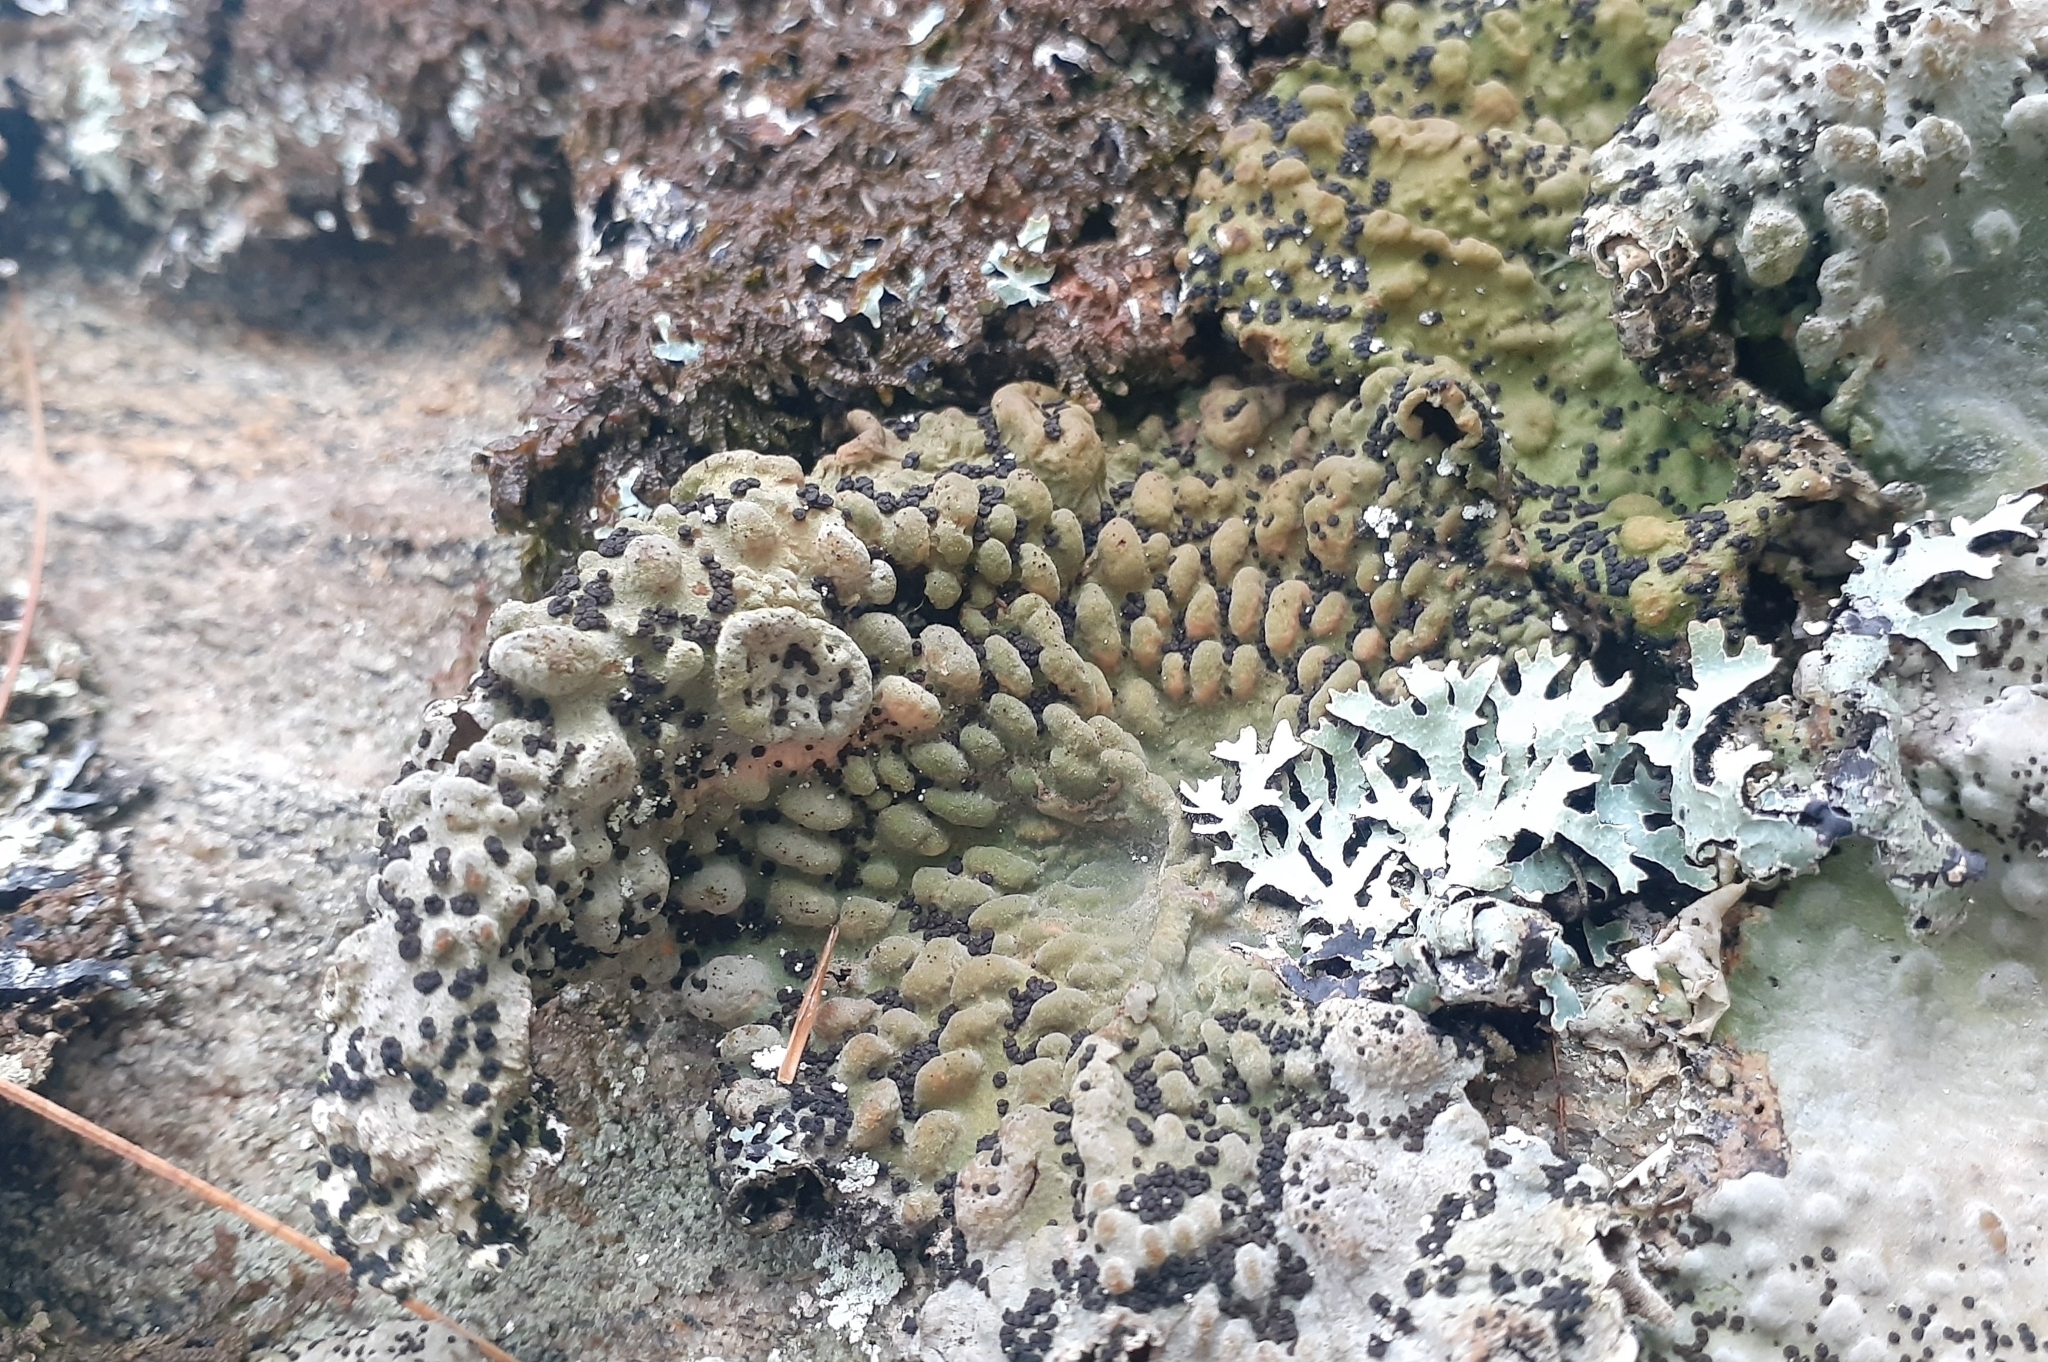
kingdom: Fungi
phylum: Ascomycota
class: Lecanoromycetes
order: Umbilicariales
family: Umbilicariaceae
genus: Lasallia
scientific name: Lasallia papulosa
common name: Common toadskin lichen
